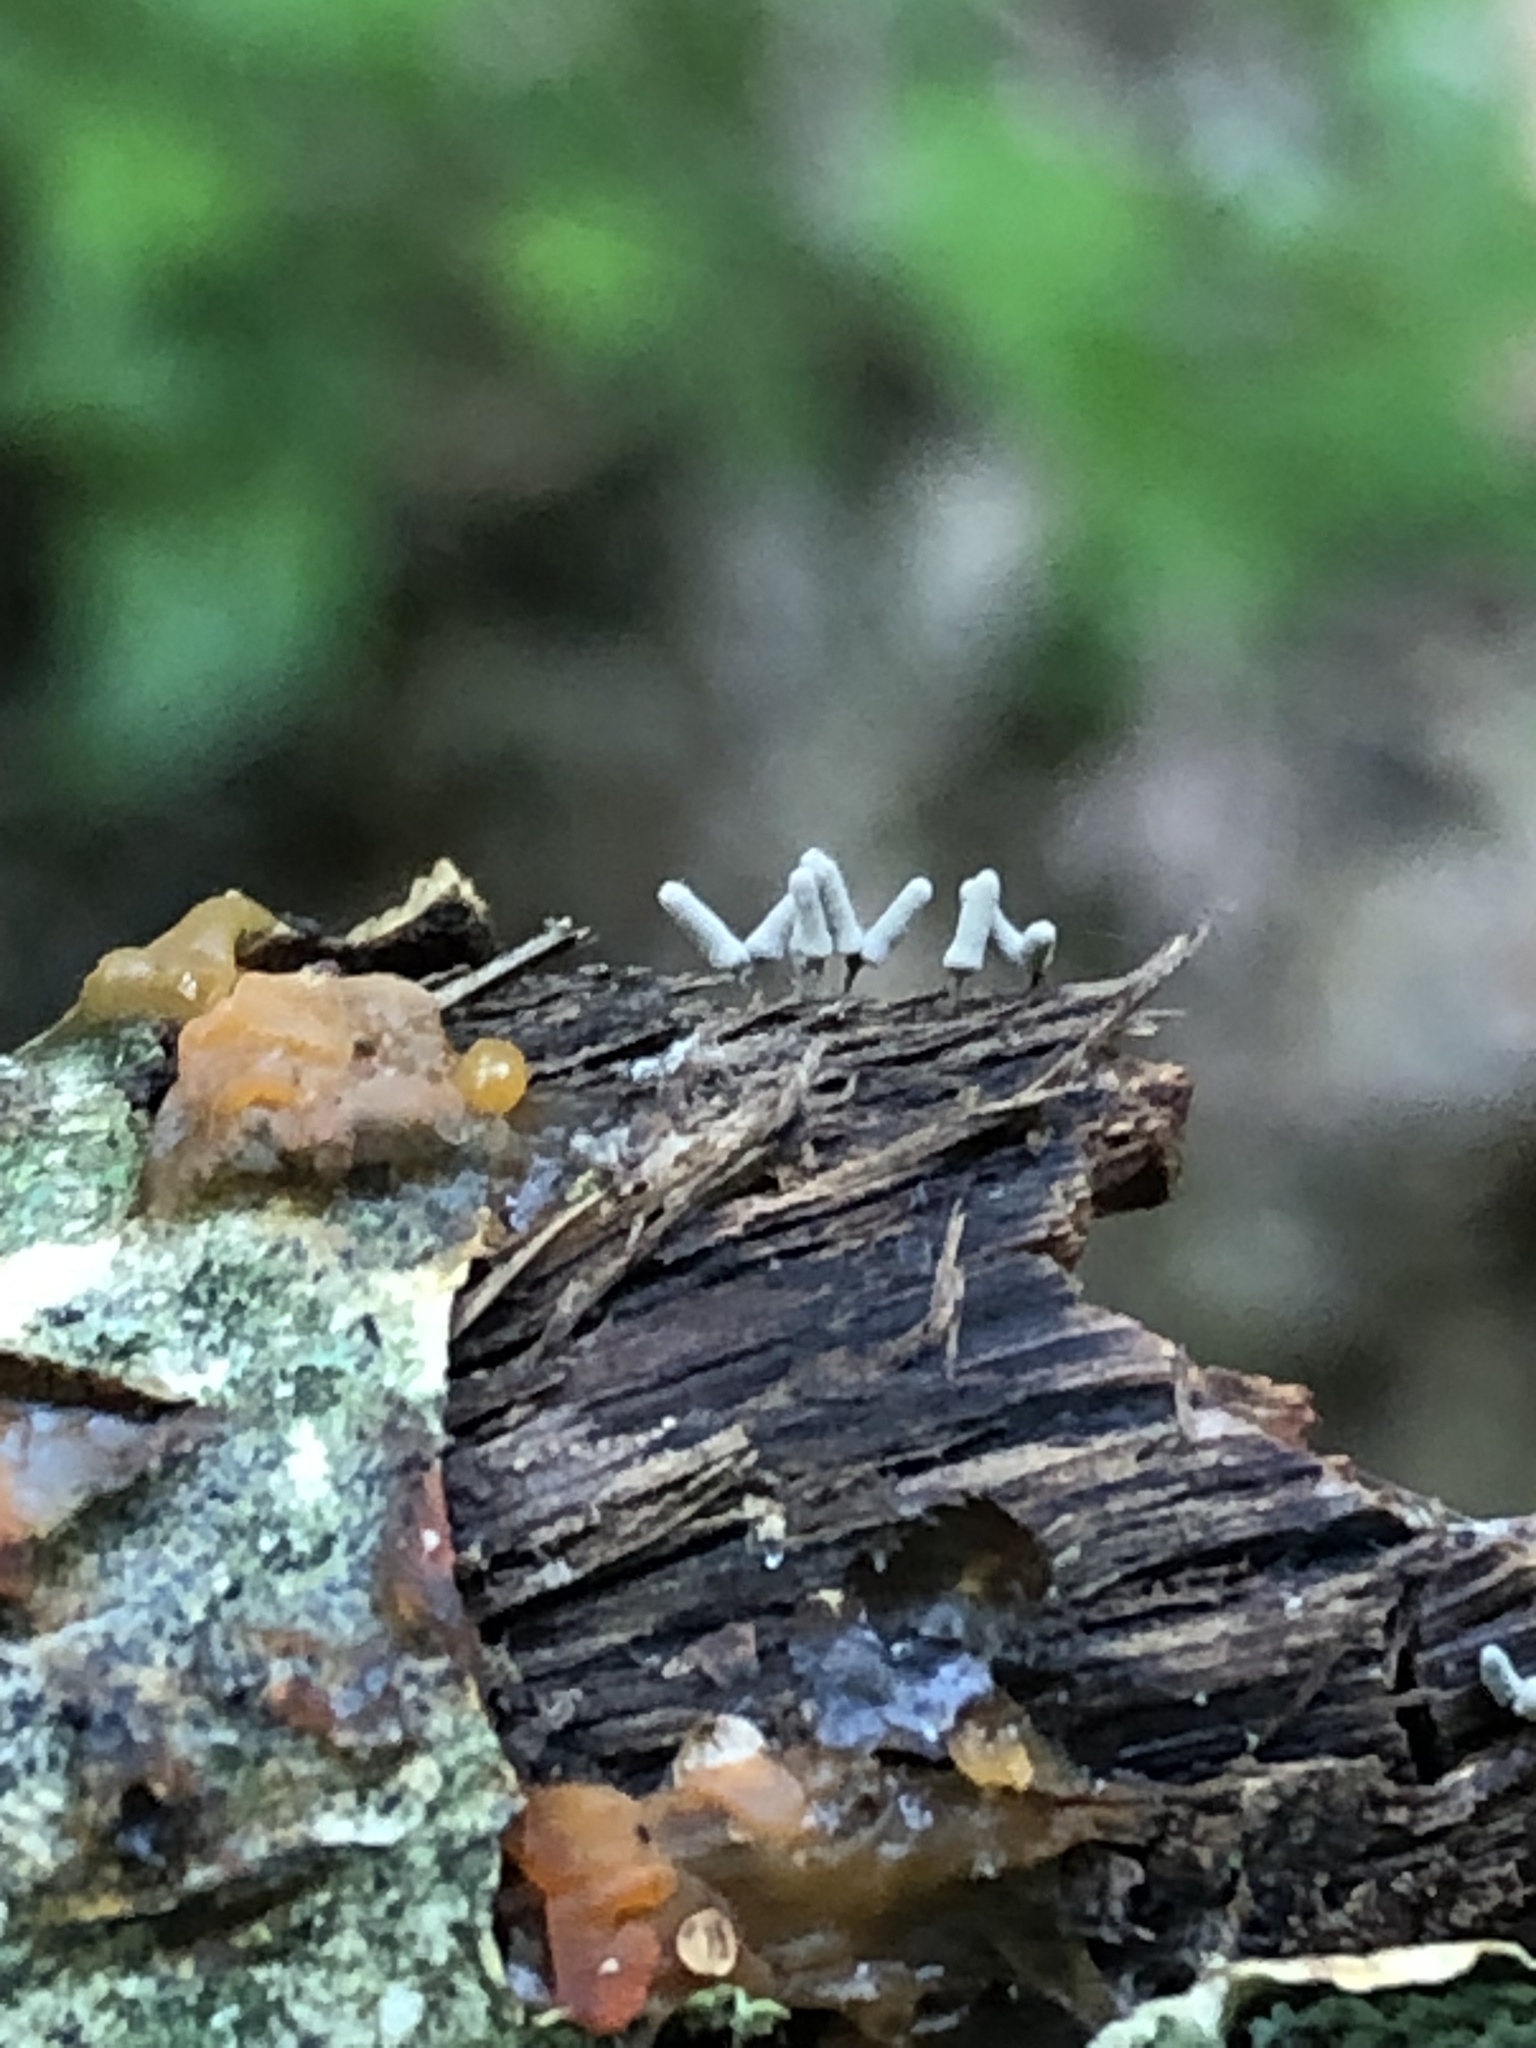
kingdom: Protozoa
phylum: Mycetozoa
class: Myxomycetes
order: Trichiales
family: Arcyriaceae
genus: Arcyria
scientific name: Arcyria cinerea
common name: White carnival candy slime mold
